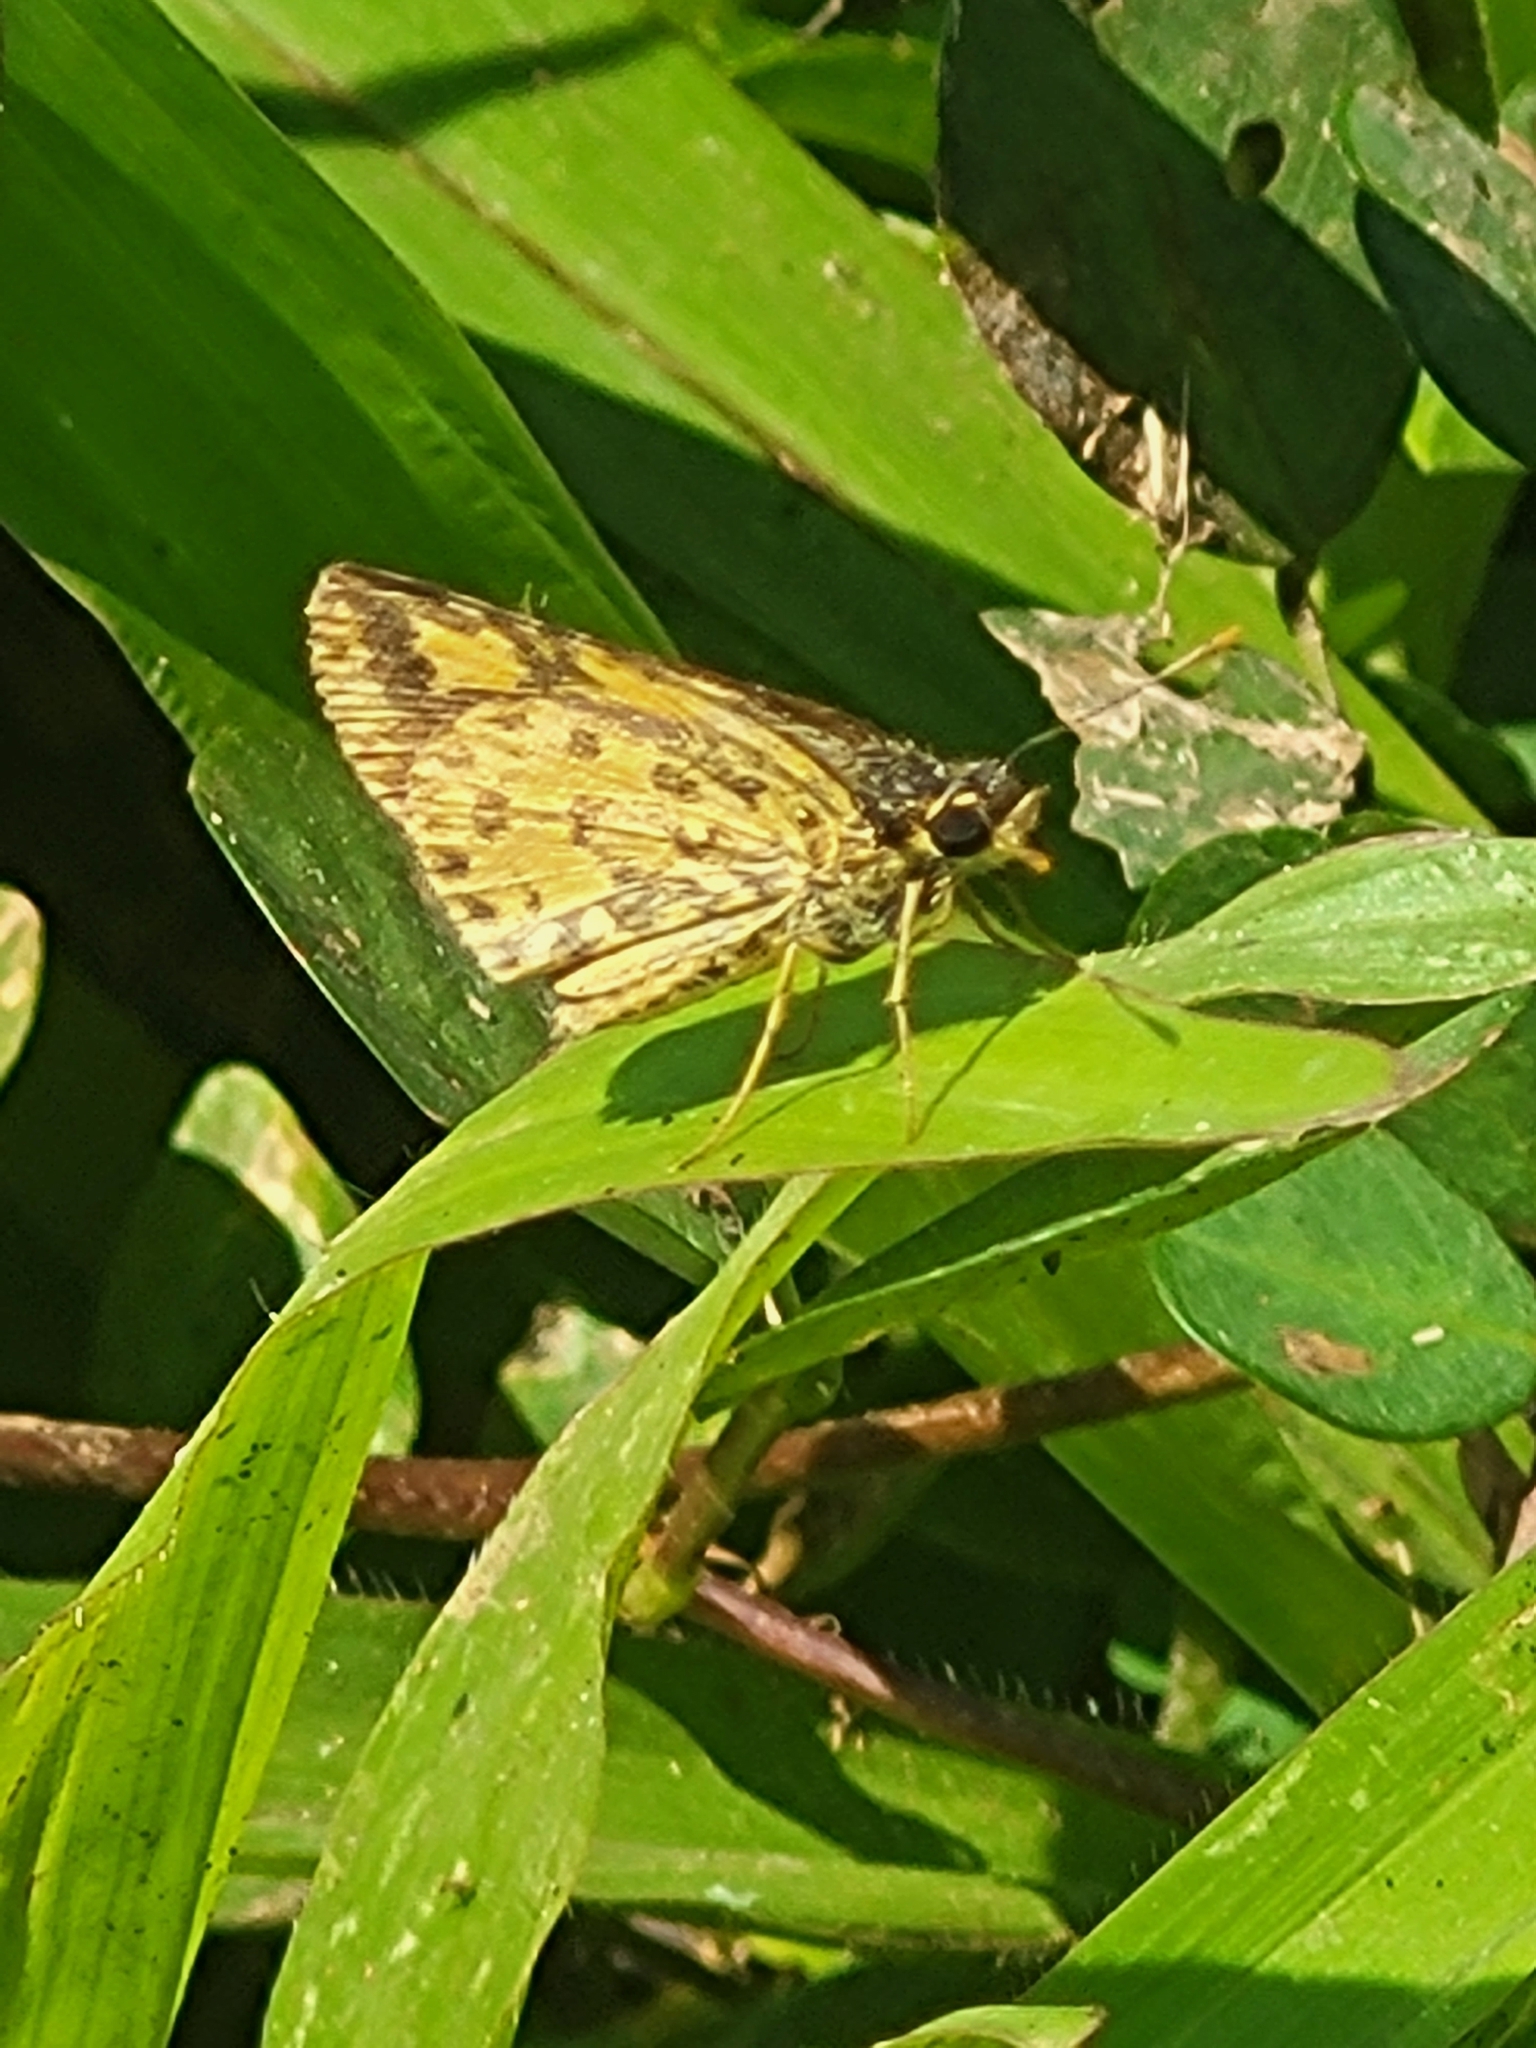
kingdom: Animalia
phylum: Arthropoda
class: Insecta
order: Lepidoptera
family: Hesperiidae
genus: Ampittia
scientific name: Ampittia dioscorides
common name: Common bush hopper
